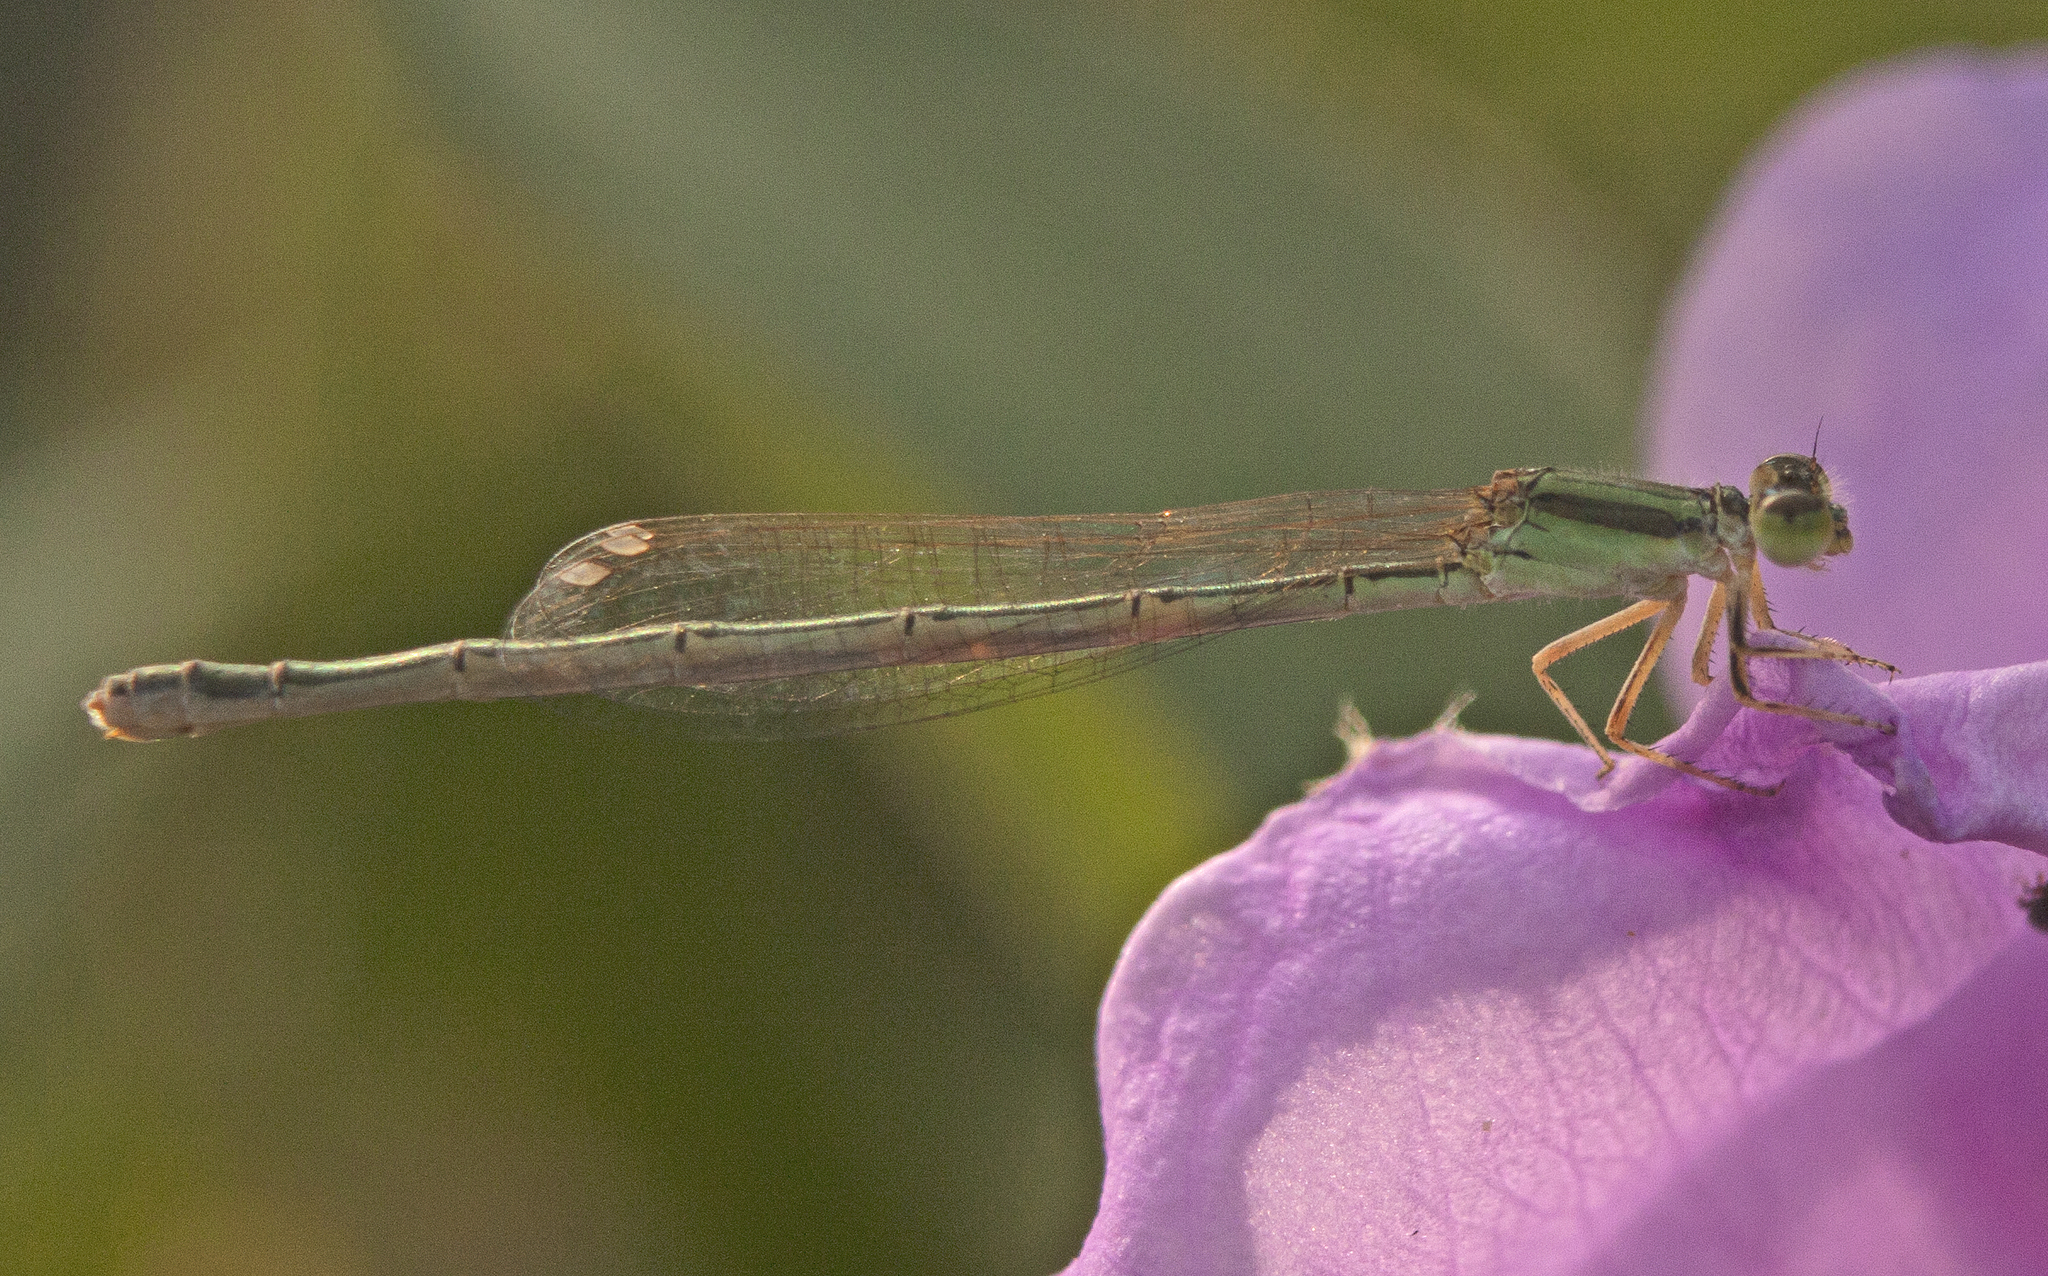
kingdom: Animalia
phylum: Arthropoda
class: Insecta
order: Odonata
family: Coenagrionidae
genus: Ischnura
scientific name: Ischnura aurora
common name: Gossamer damselfly
